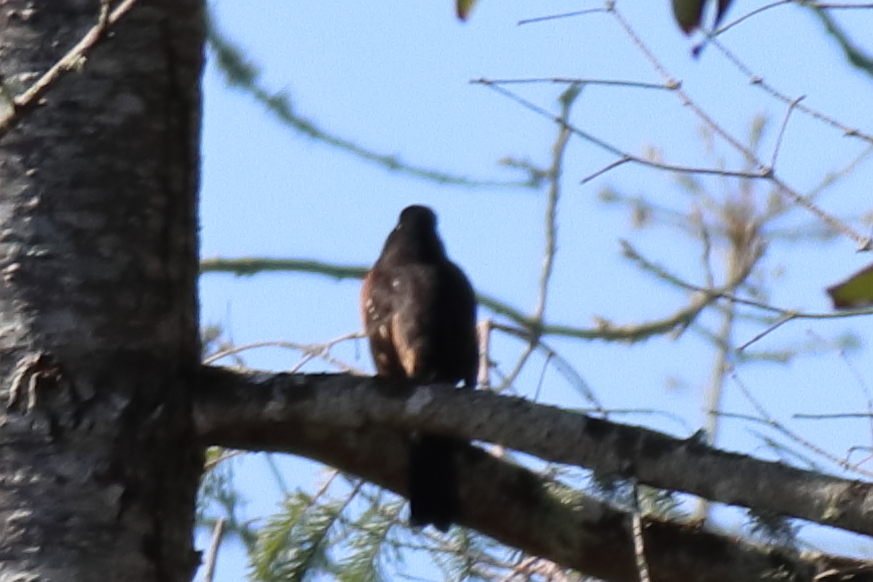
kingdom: Animalia
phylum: Chordata
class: Aves
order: Passeriformes
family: Passerellidae
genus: Pipilo
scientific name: Pipilo maculatus
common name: Spotted towhee
